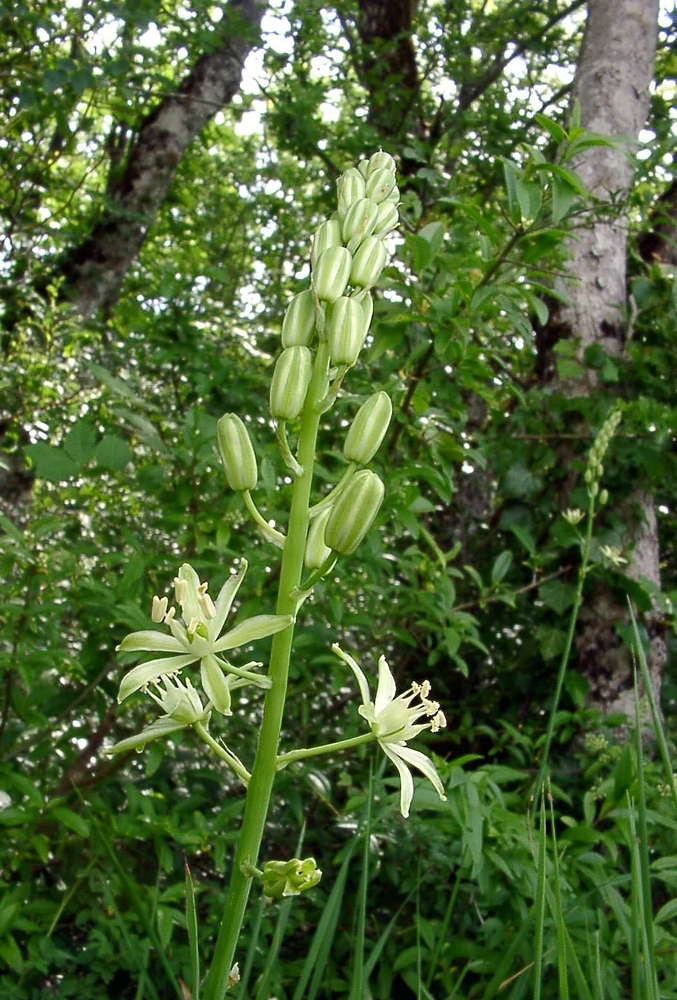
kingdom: Plantae
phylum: Tracheophyta
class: Liliopsida
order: Asparagales
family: Asparagaceae
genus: Ornithogalum
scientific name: Ornithogalum pyrenaicum
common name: Spiked star-of-bethlehem
